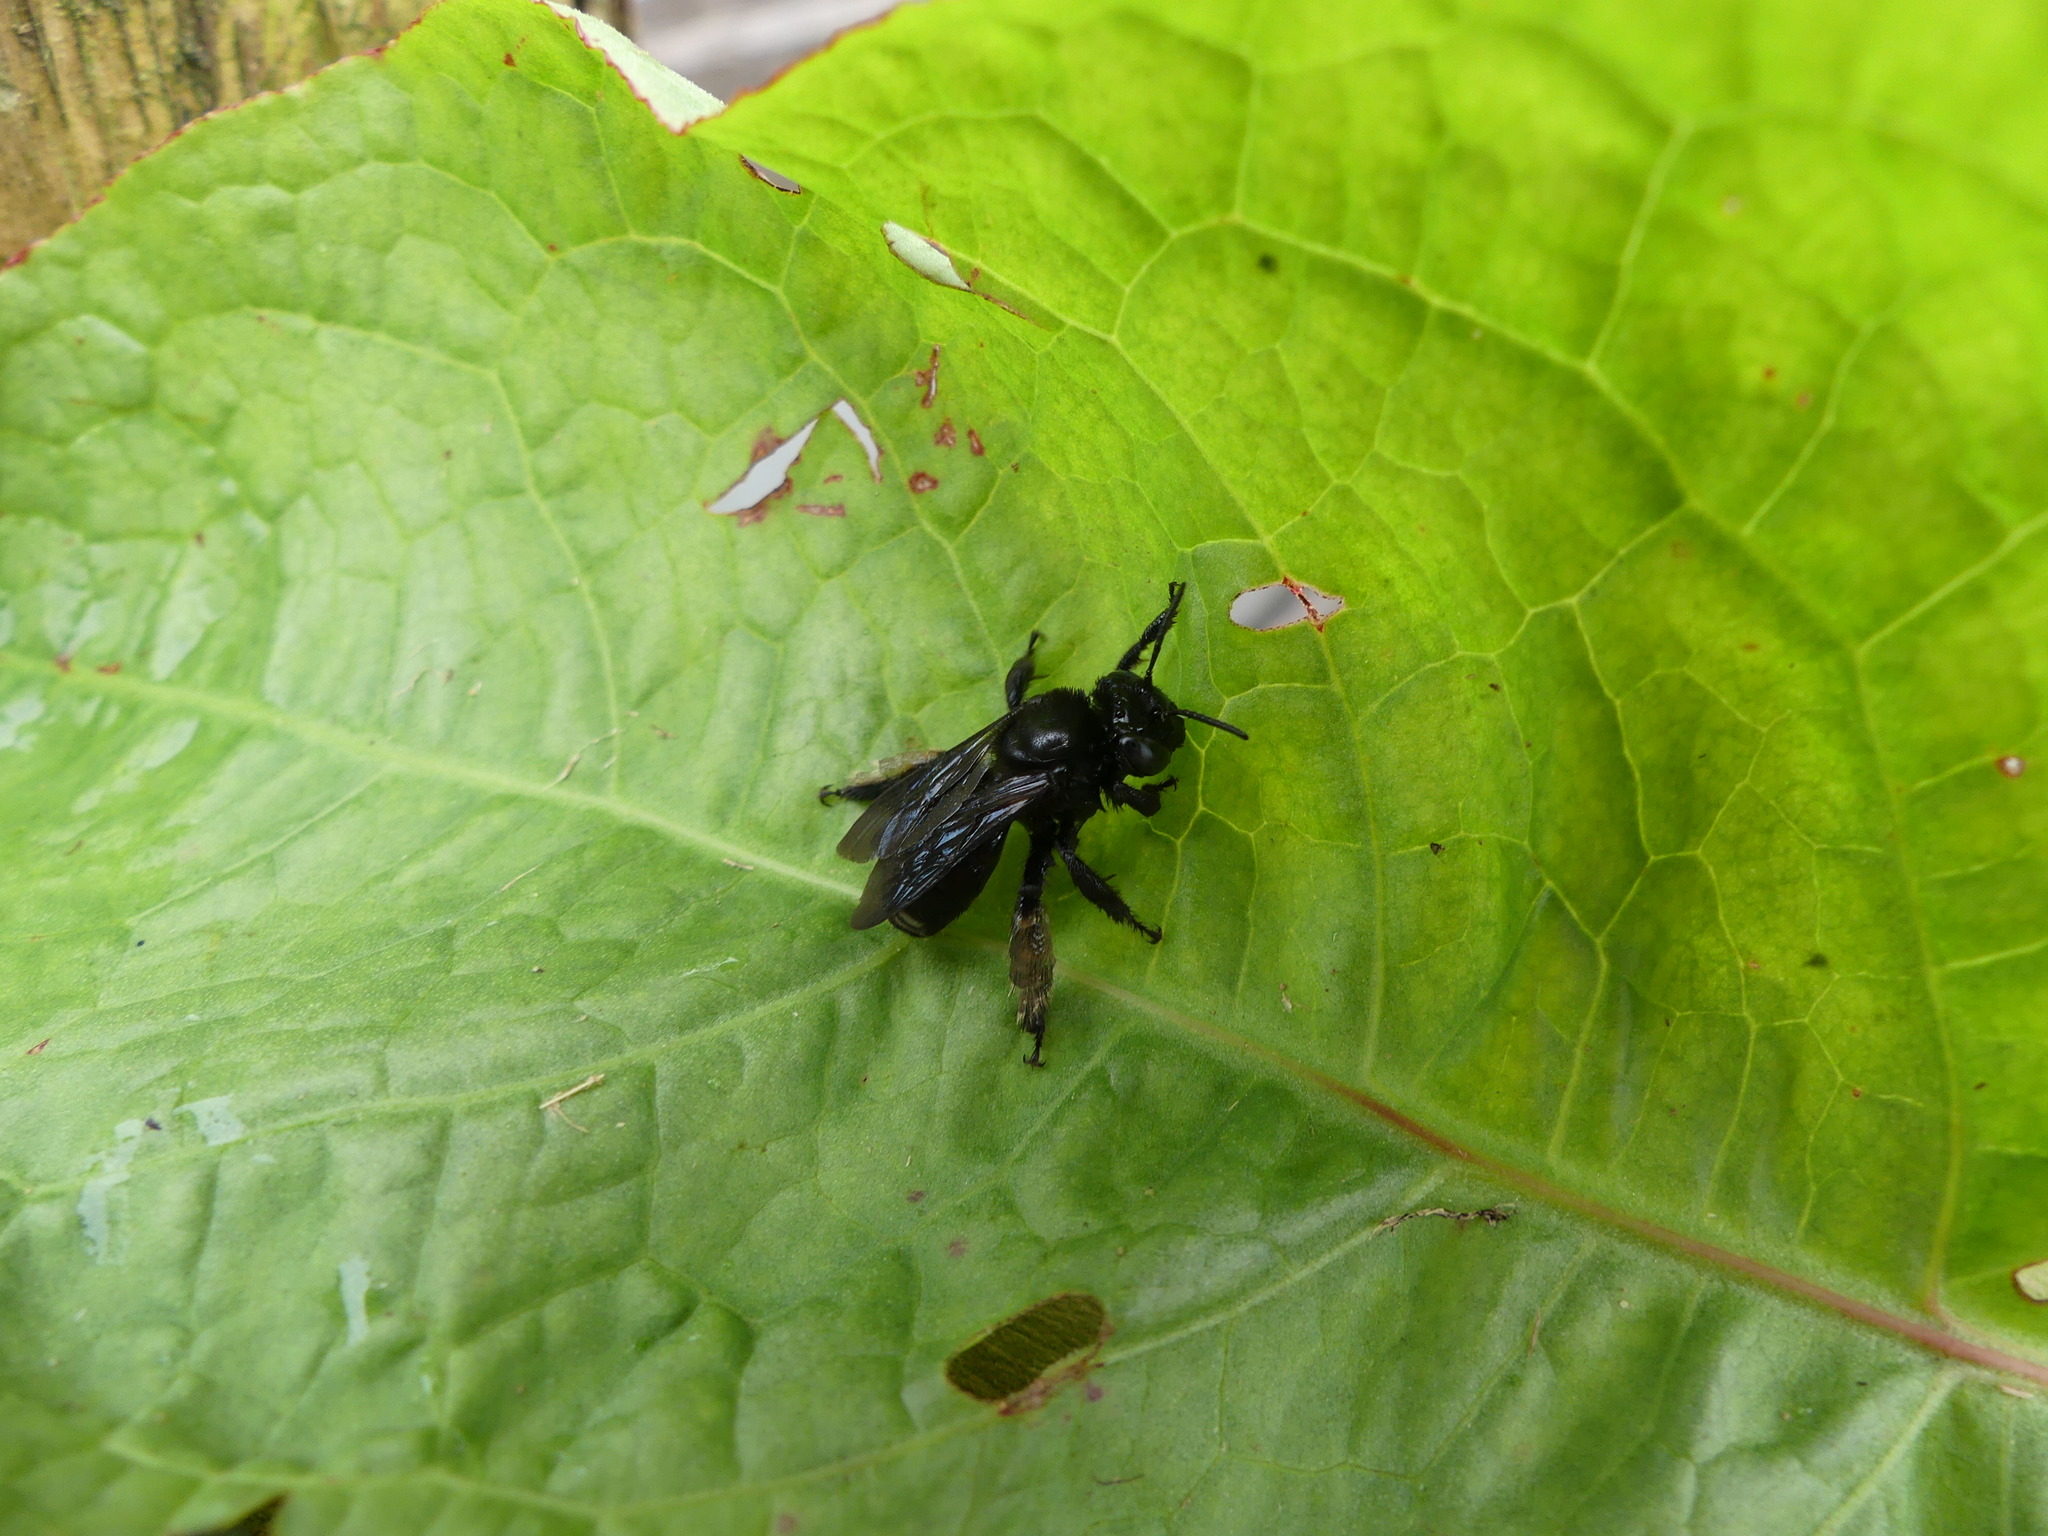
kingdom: Animalia
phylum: Arthropoda
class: Insecta
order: Hymenoptera
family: Apidae
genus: Melissodes
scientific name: Melissodes bimaculatus
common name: Two-spotted long-horned bee
